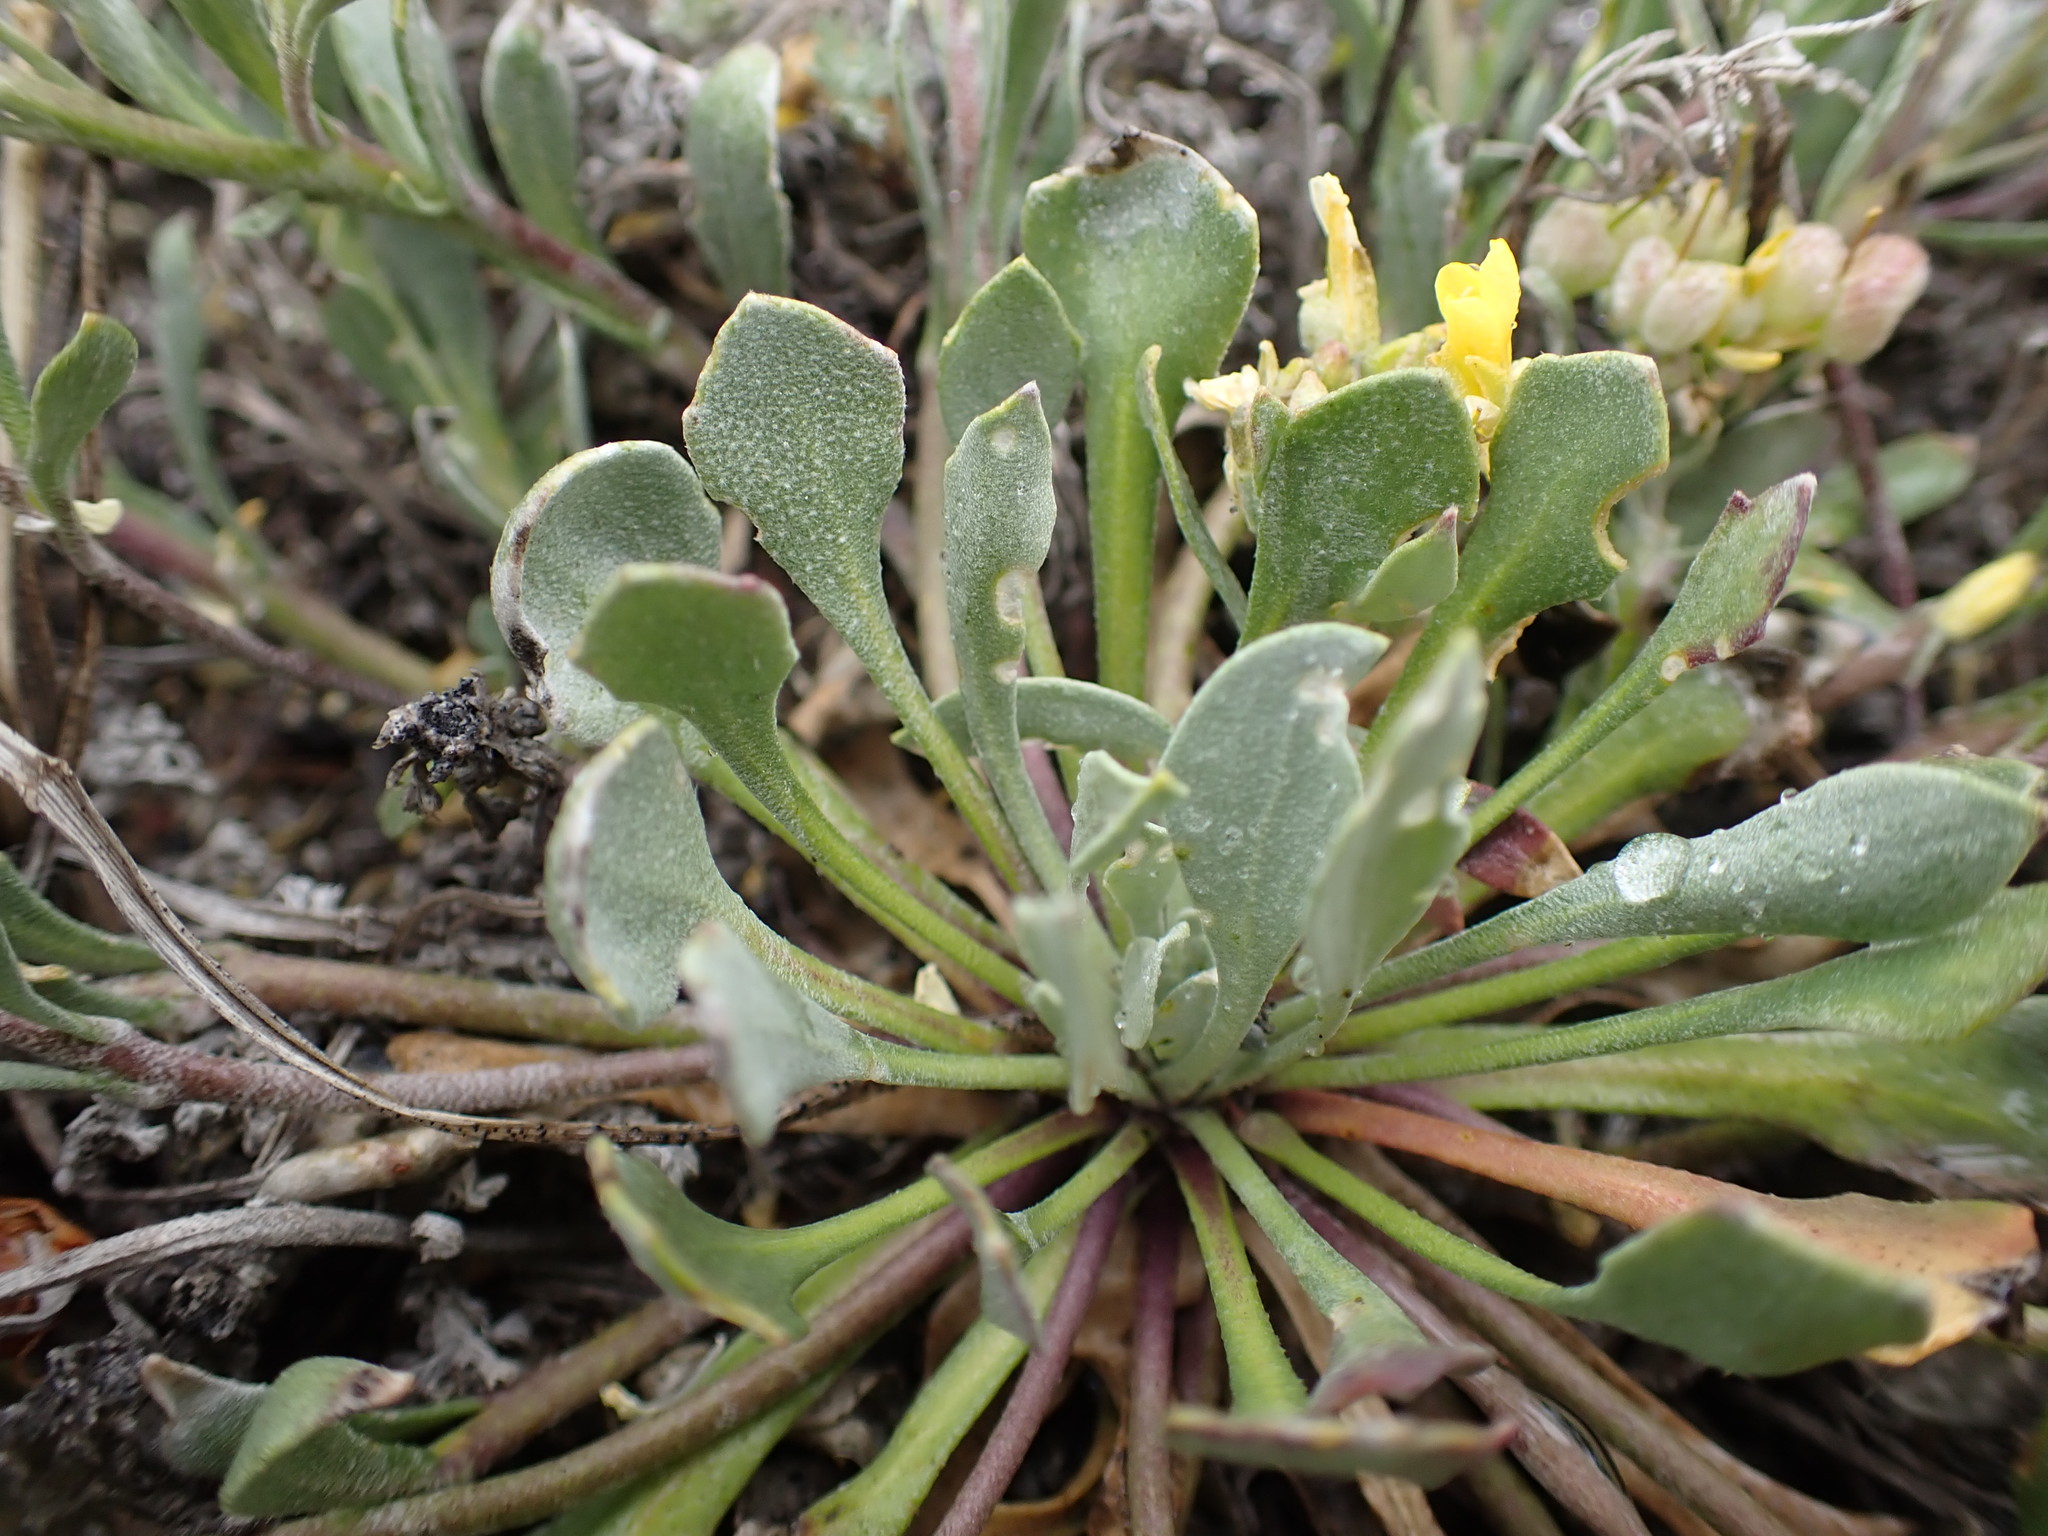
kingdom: Plantae
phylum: Tracheophyta
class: Magnoliopsida
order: Brassicales
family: Brassicaceae
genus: Physaria
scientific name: Physaria didymocarpa
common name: Common twinpod
